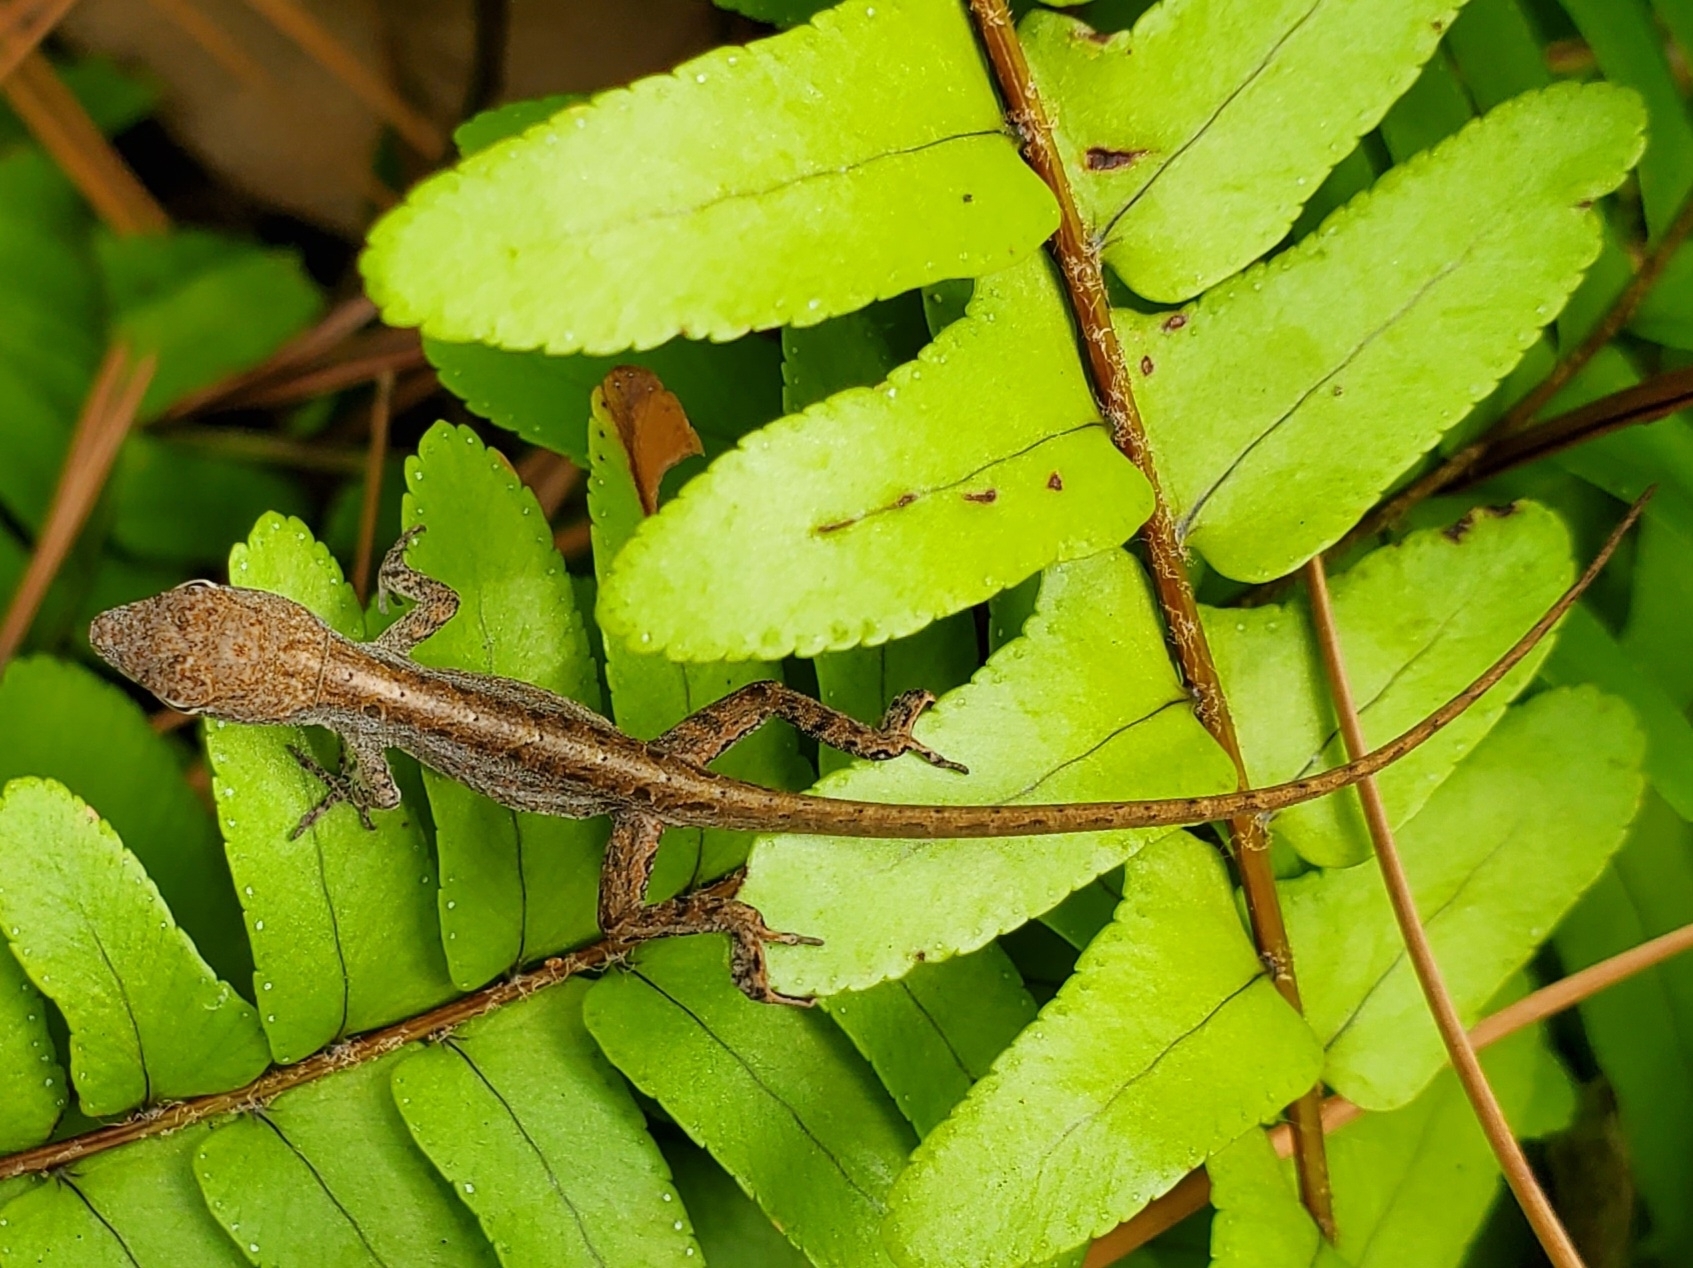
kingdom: Animalia
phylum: Chordata
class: Squamata
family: Dactyloidae
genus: Anolis
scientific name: Anolis sagrei
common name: Brown anole
